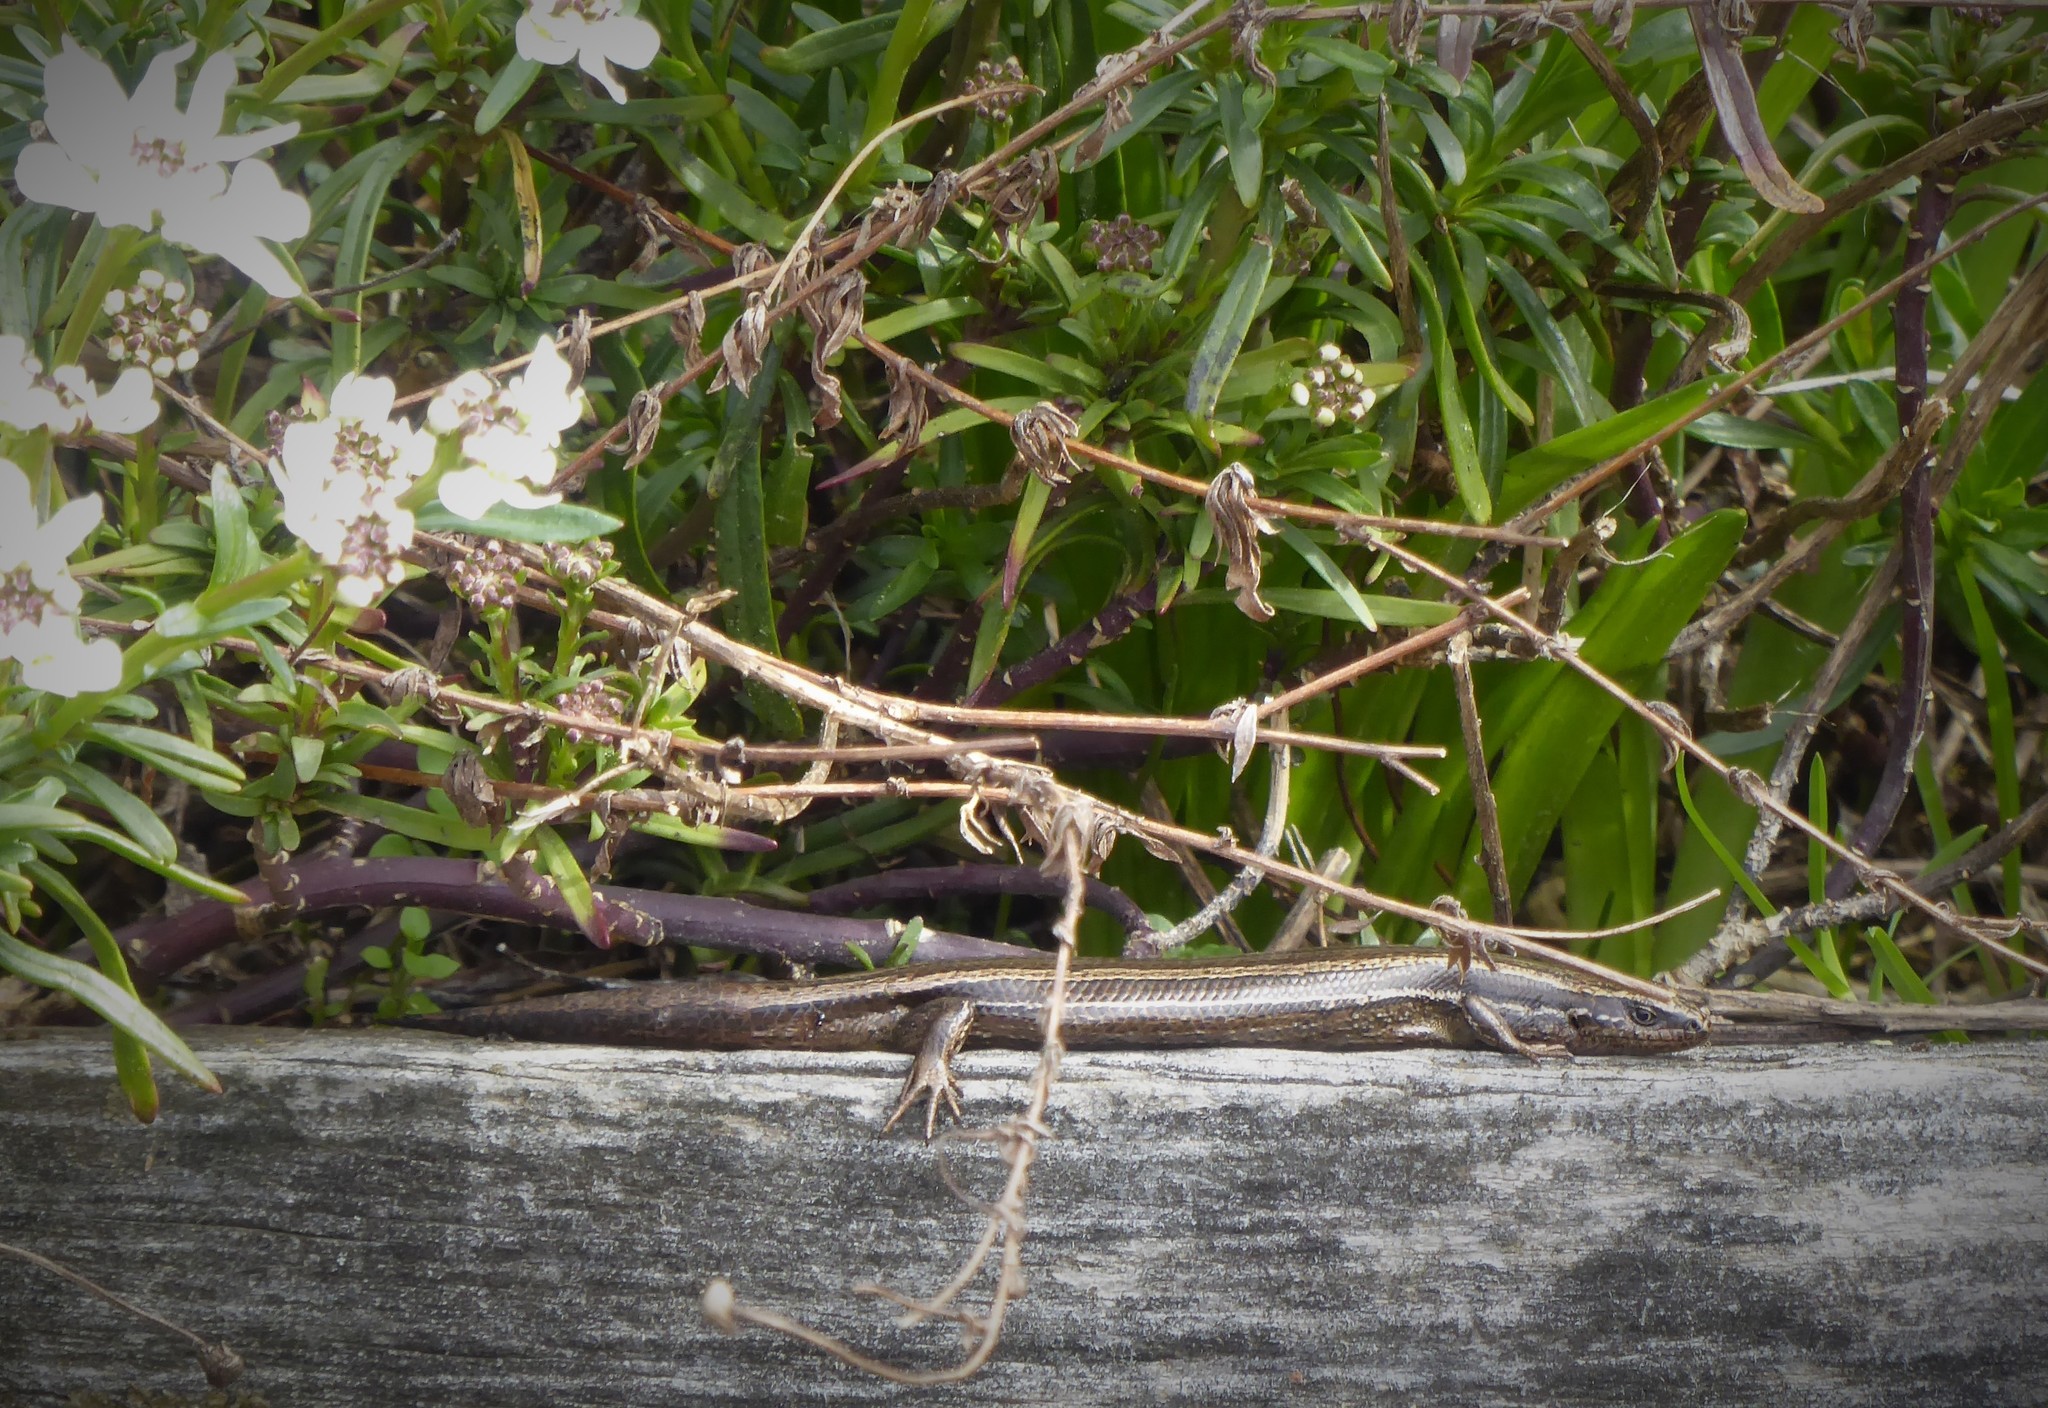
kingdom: Animalia
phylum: Chordata
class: Squamata
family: Scincidae
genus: Oligosoma
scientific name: Oligosoma polychroma
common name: Common new zealand skink
